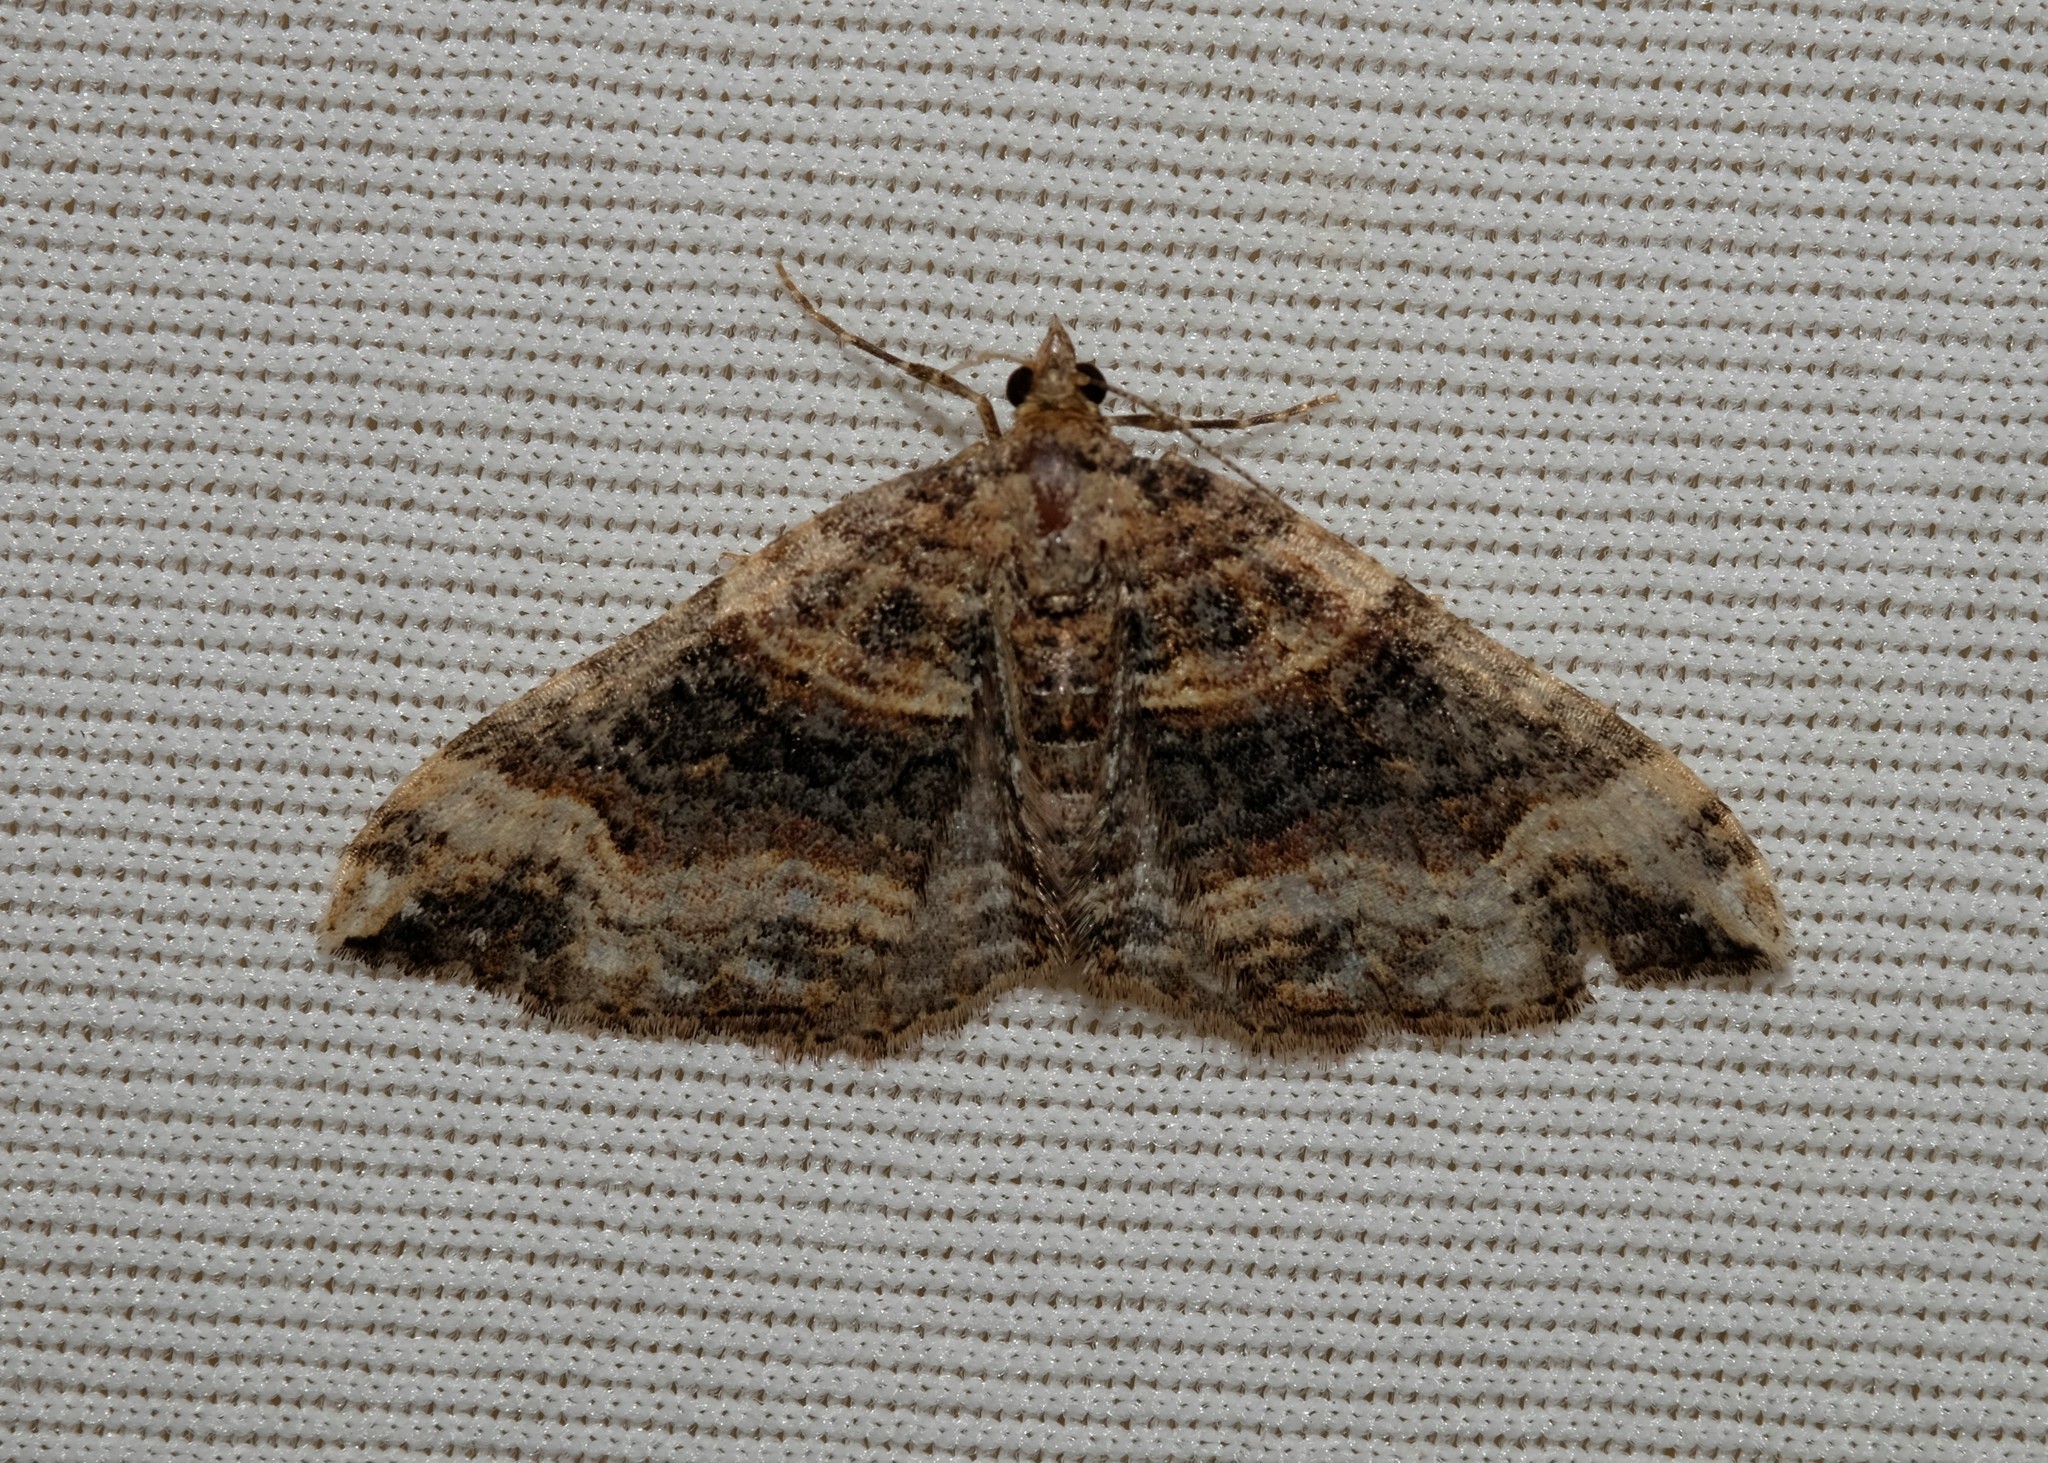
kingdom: Animalia
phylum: Arthropoda
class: Insecta
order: Lepidoptera
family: Geometridae
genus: Epyaxa
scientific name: Epyaxa subidaria
